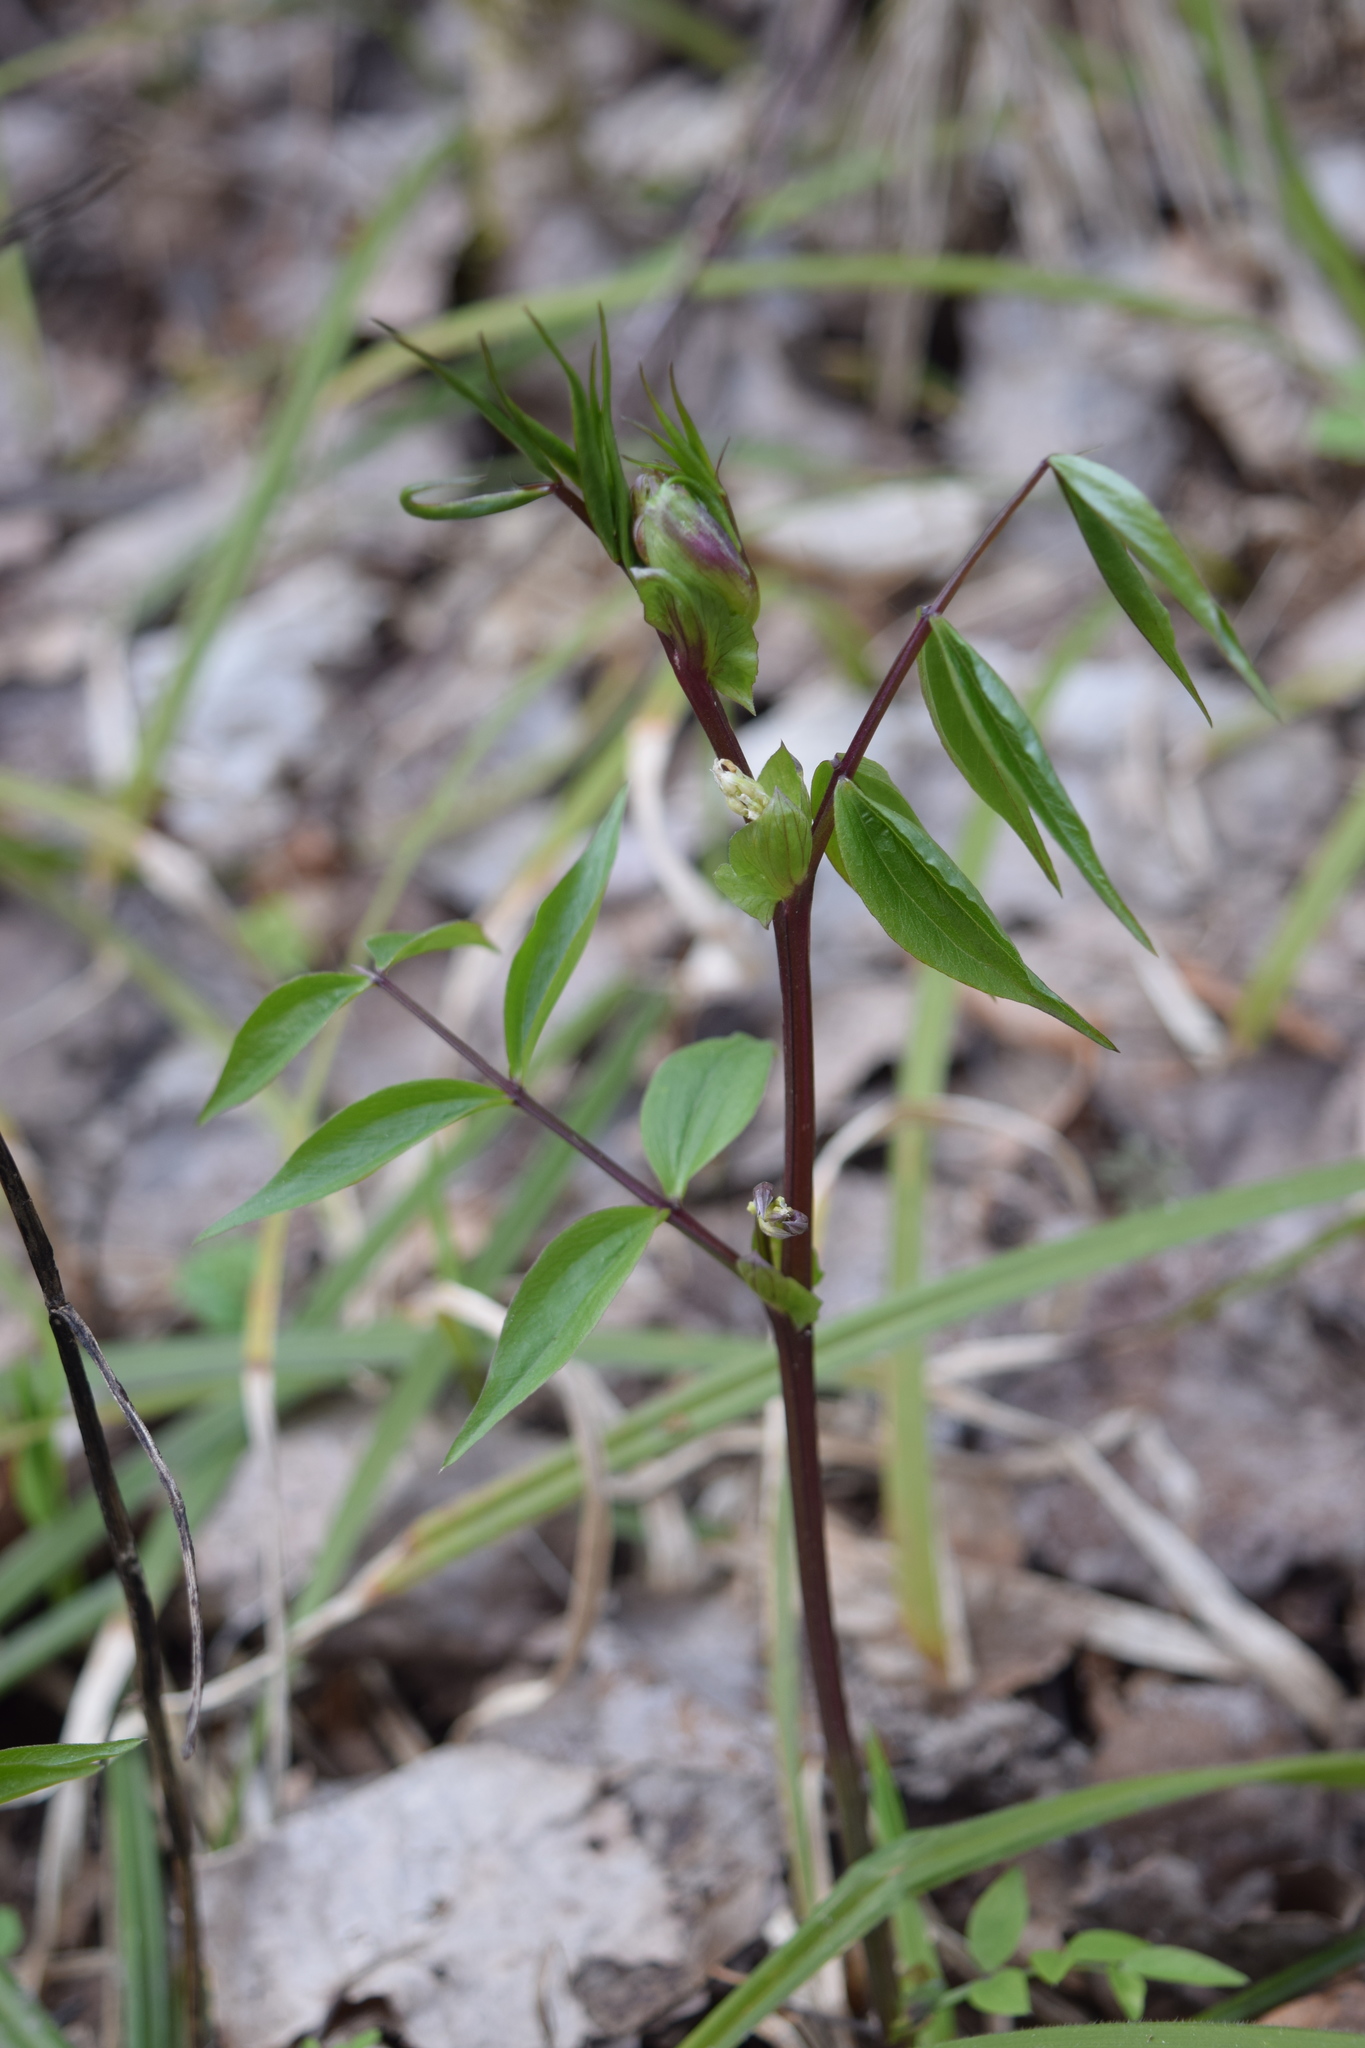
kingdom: Plantae
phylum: Tracheophyta
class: Magnoliopsida
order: Fabales
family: Fabaceae
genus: Lathyrus
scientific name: Lathyrus vernus
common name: Spring pea
